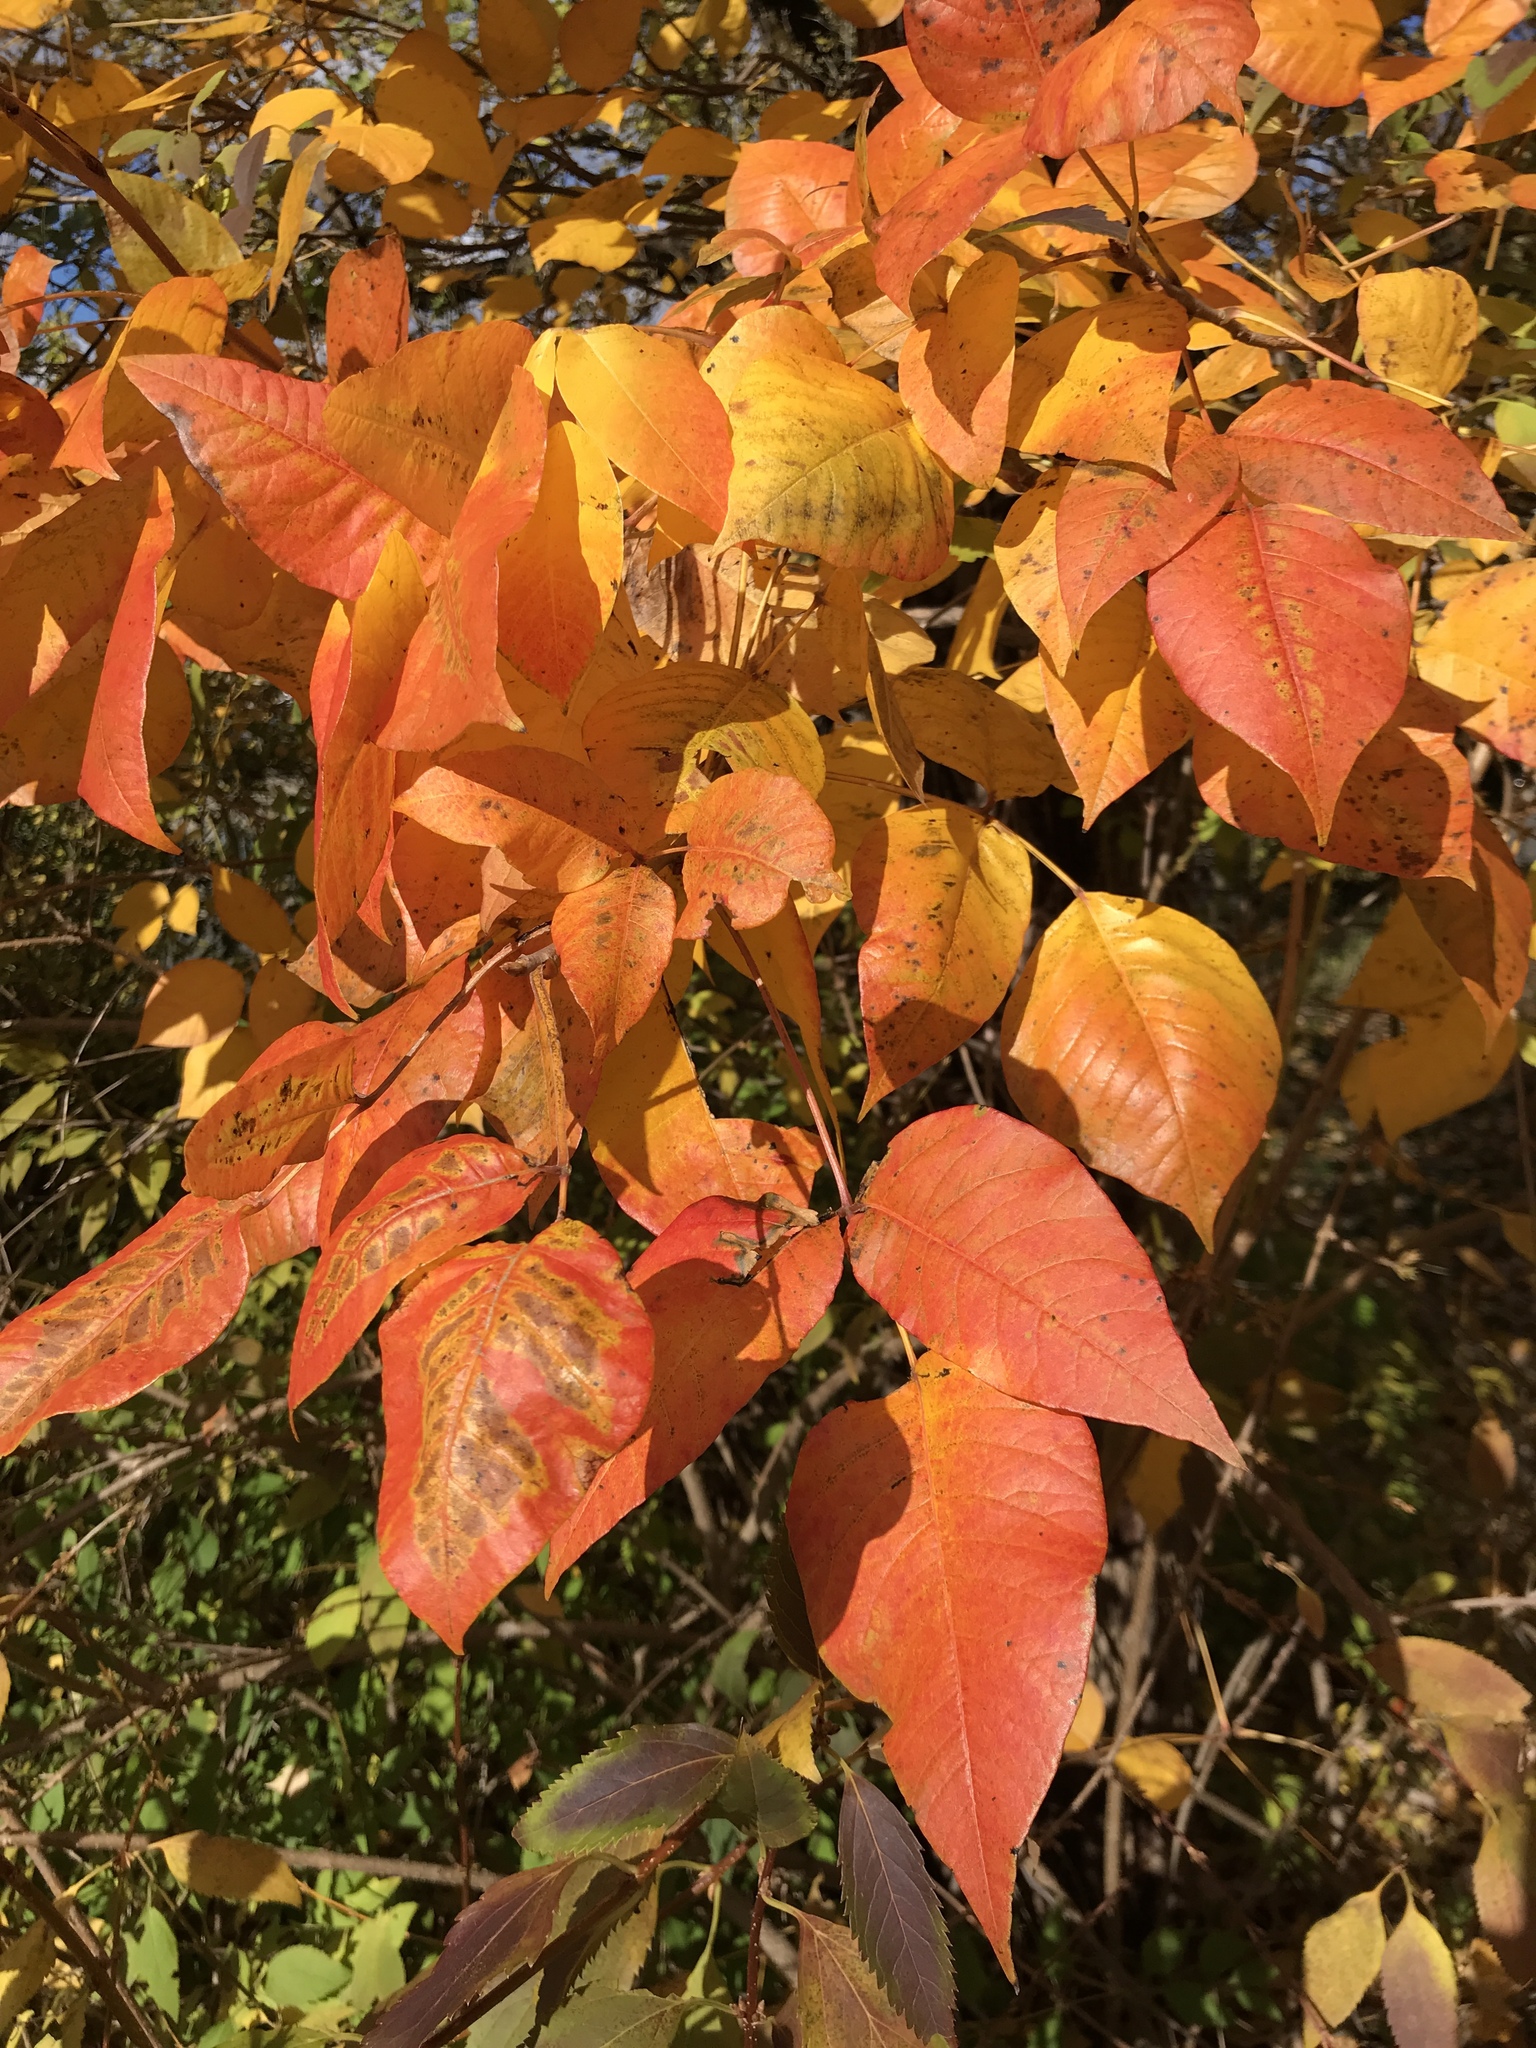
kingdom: Plantae
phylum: Tracheophyta
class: Magnoliopsida
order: Sapindales
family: Anacardiaceae
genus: Toxicodendron
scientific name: Toxicodendron radicans
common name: Poison ivy
